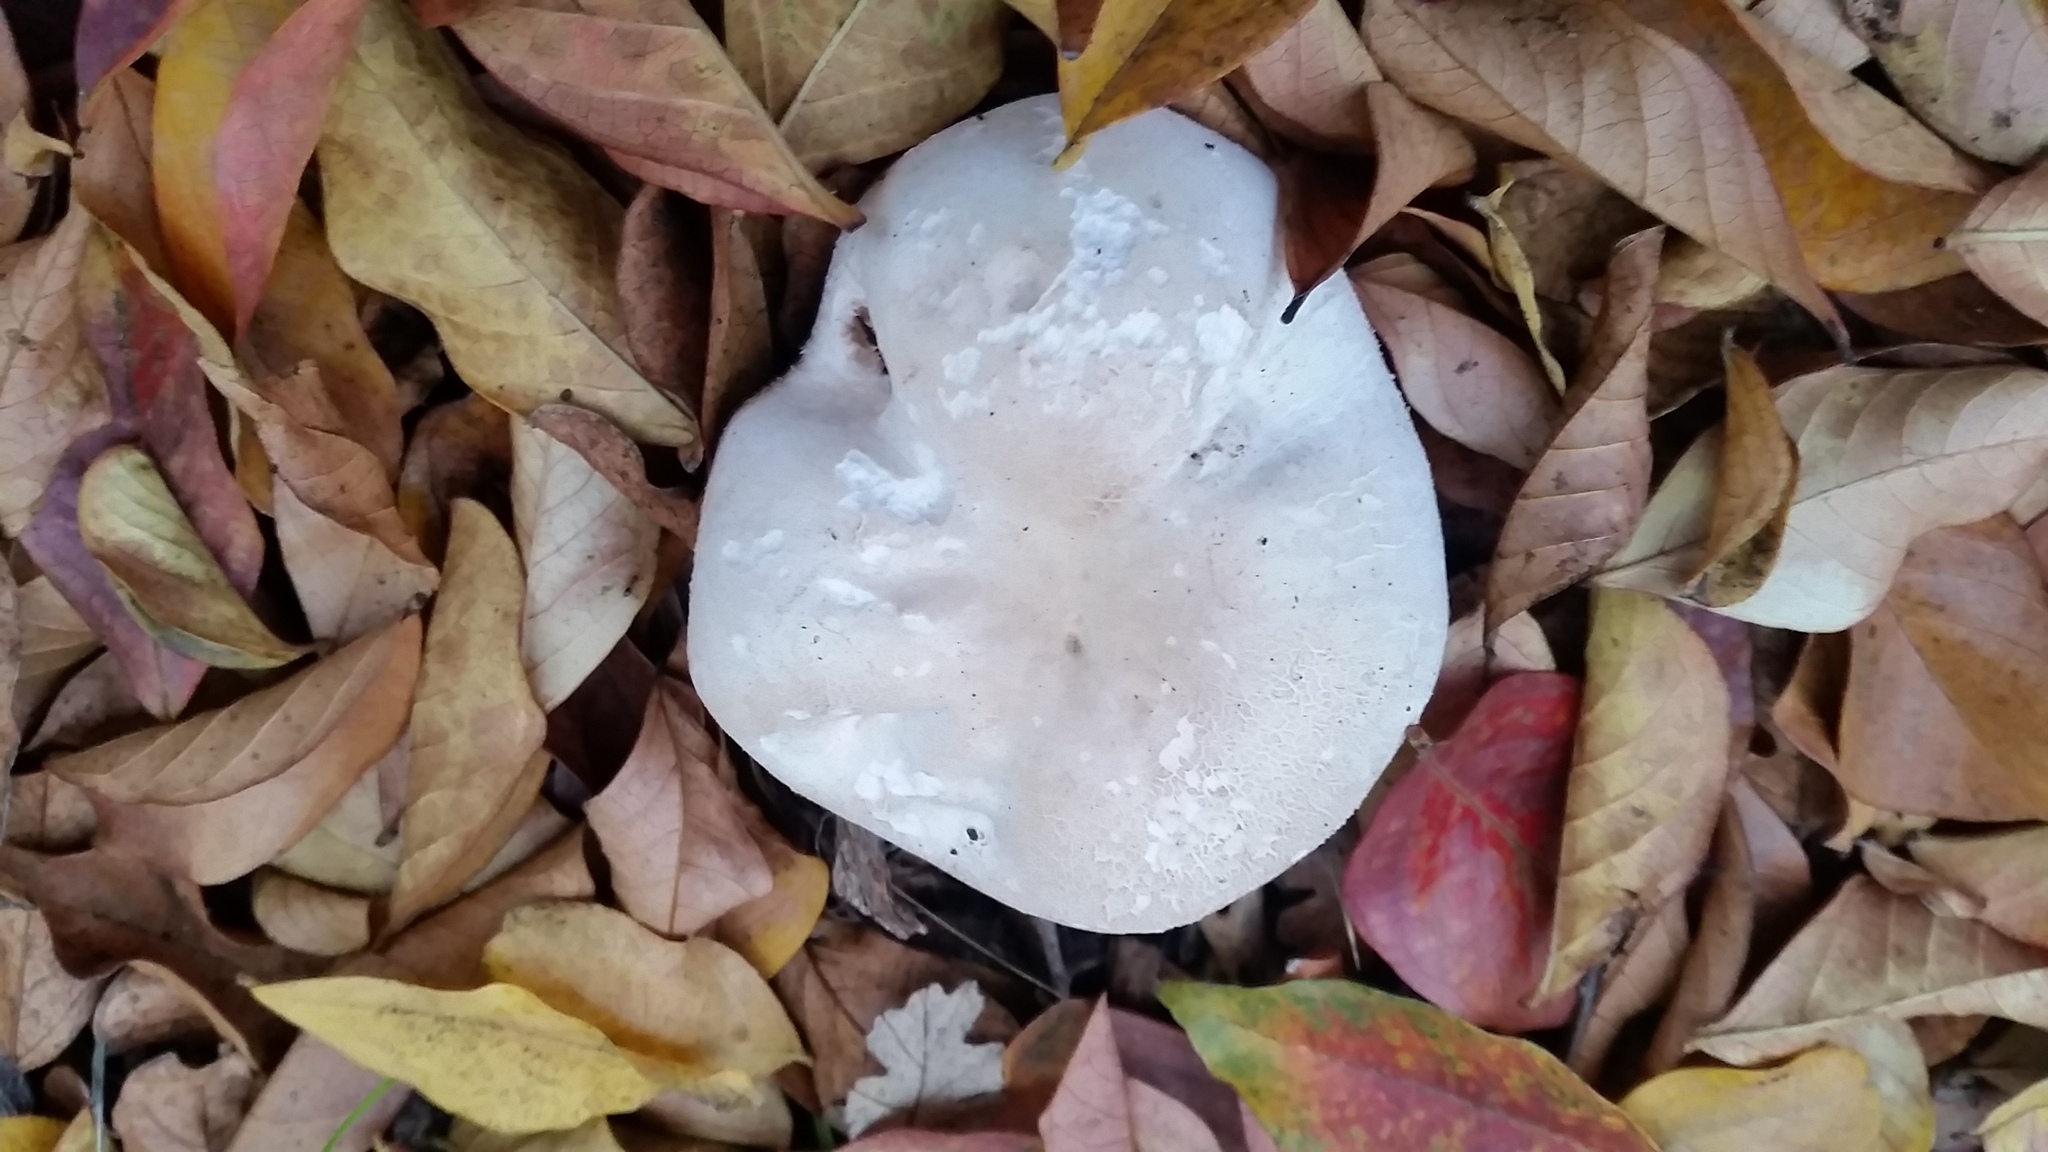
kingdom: Fungi
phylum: Basidiomycota
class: Agaricomycetes
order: Agaricales
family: Agaricaceae
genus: Agaricus
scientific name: Agaricus xanthodermus
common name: Yellow stainer
